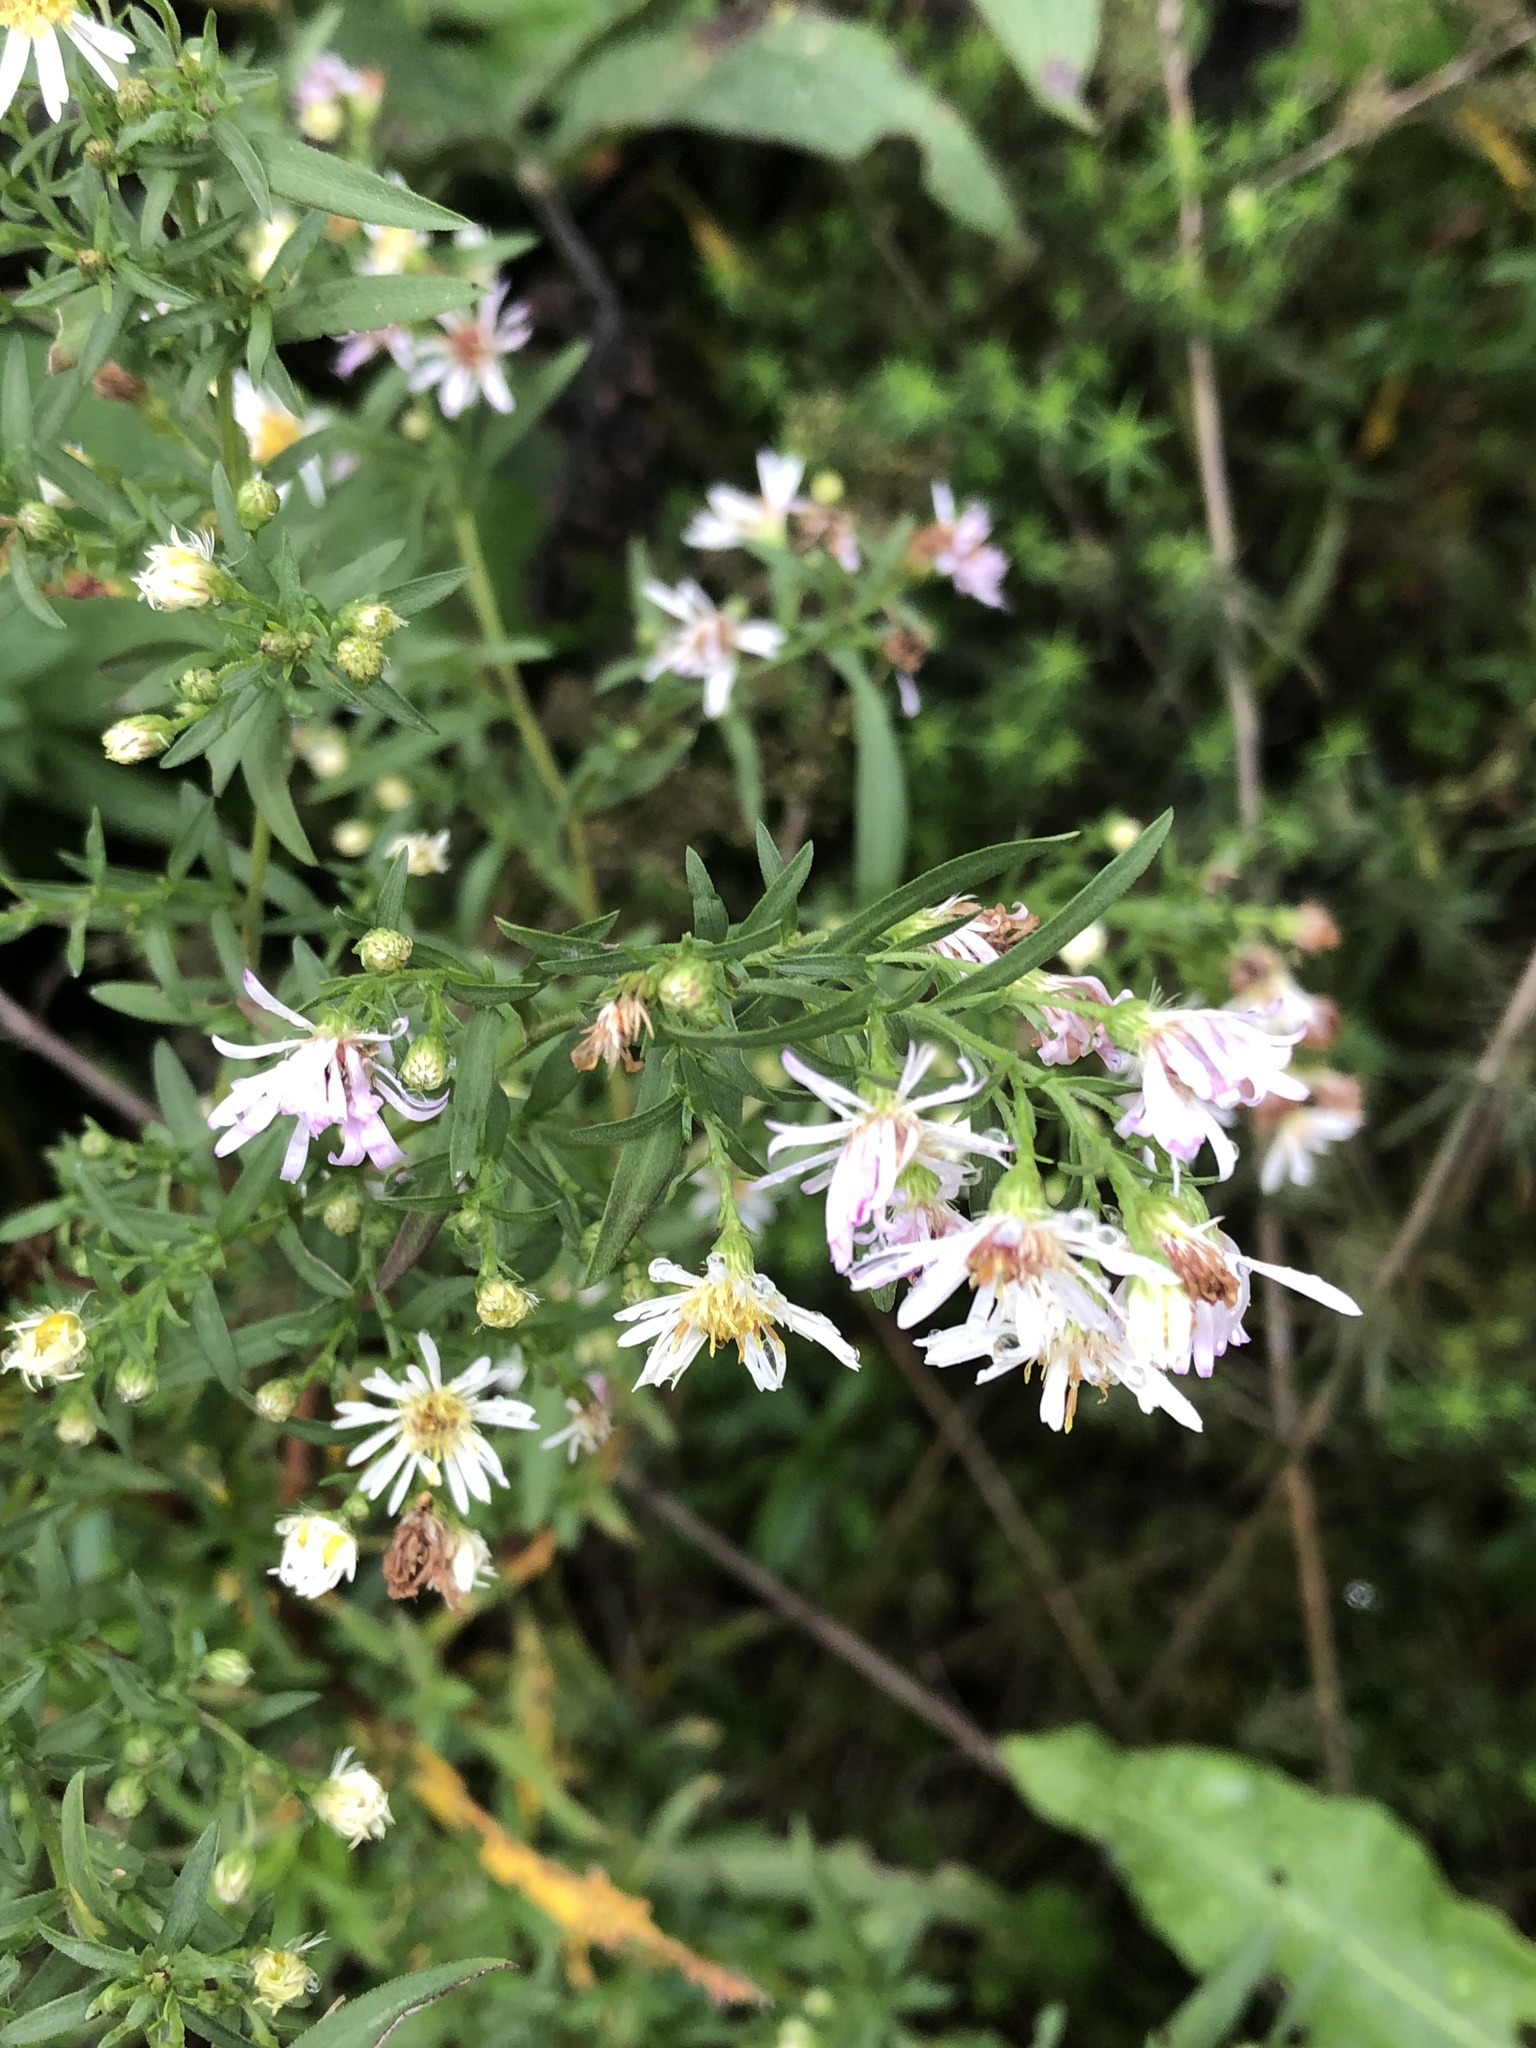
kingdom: Plantae
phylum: Tracheophyta
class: Magnoliopsida
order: Asterales
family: Asteraceae
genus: Symphyotrichum
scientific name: Symphyotrichum lanceolatum
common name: Panicled aster
